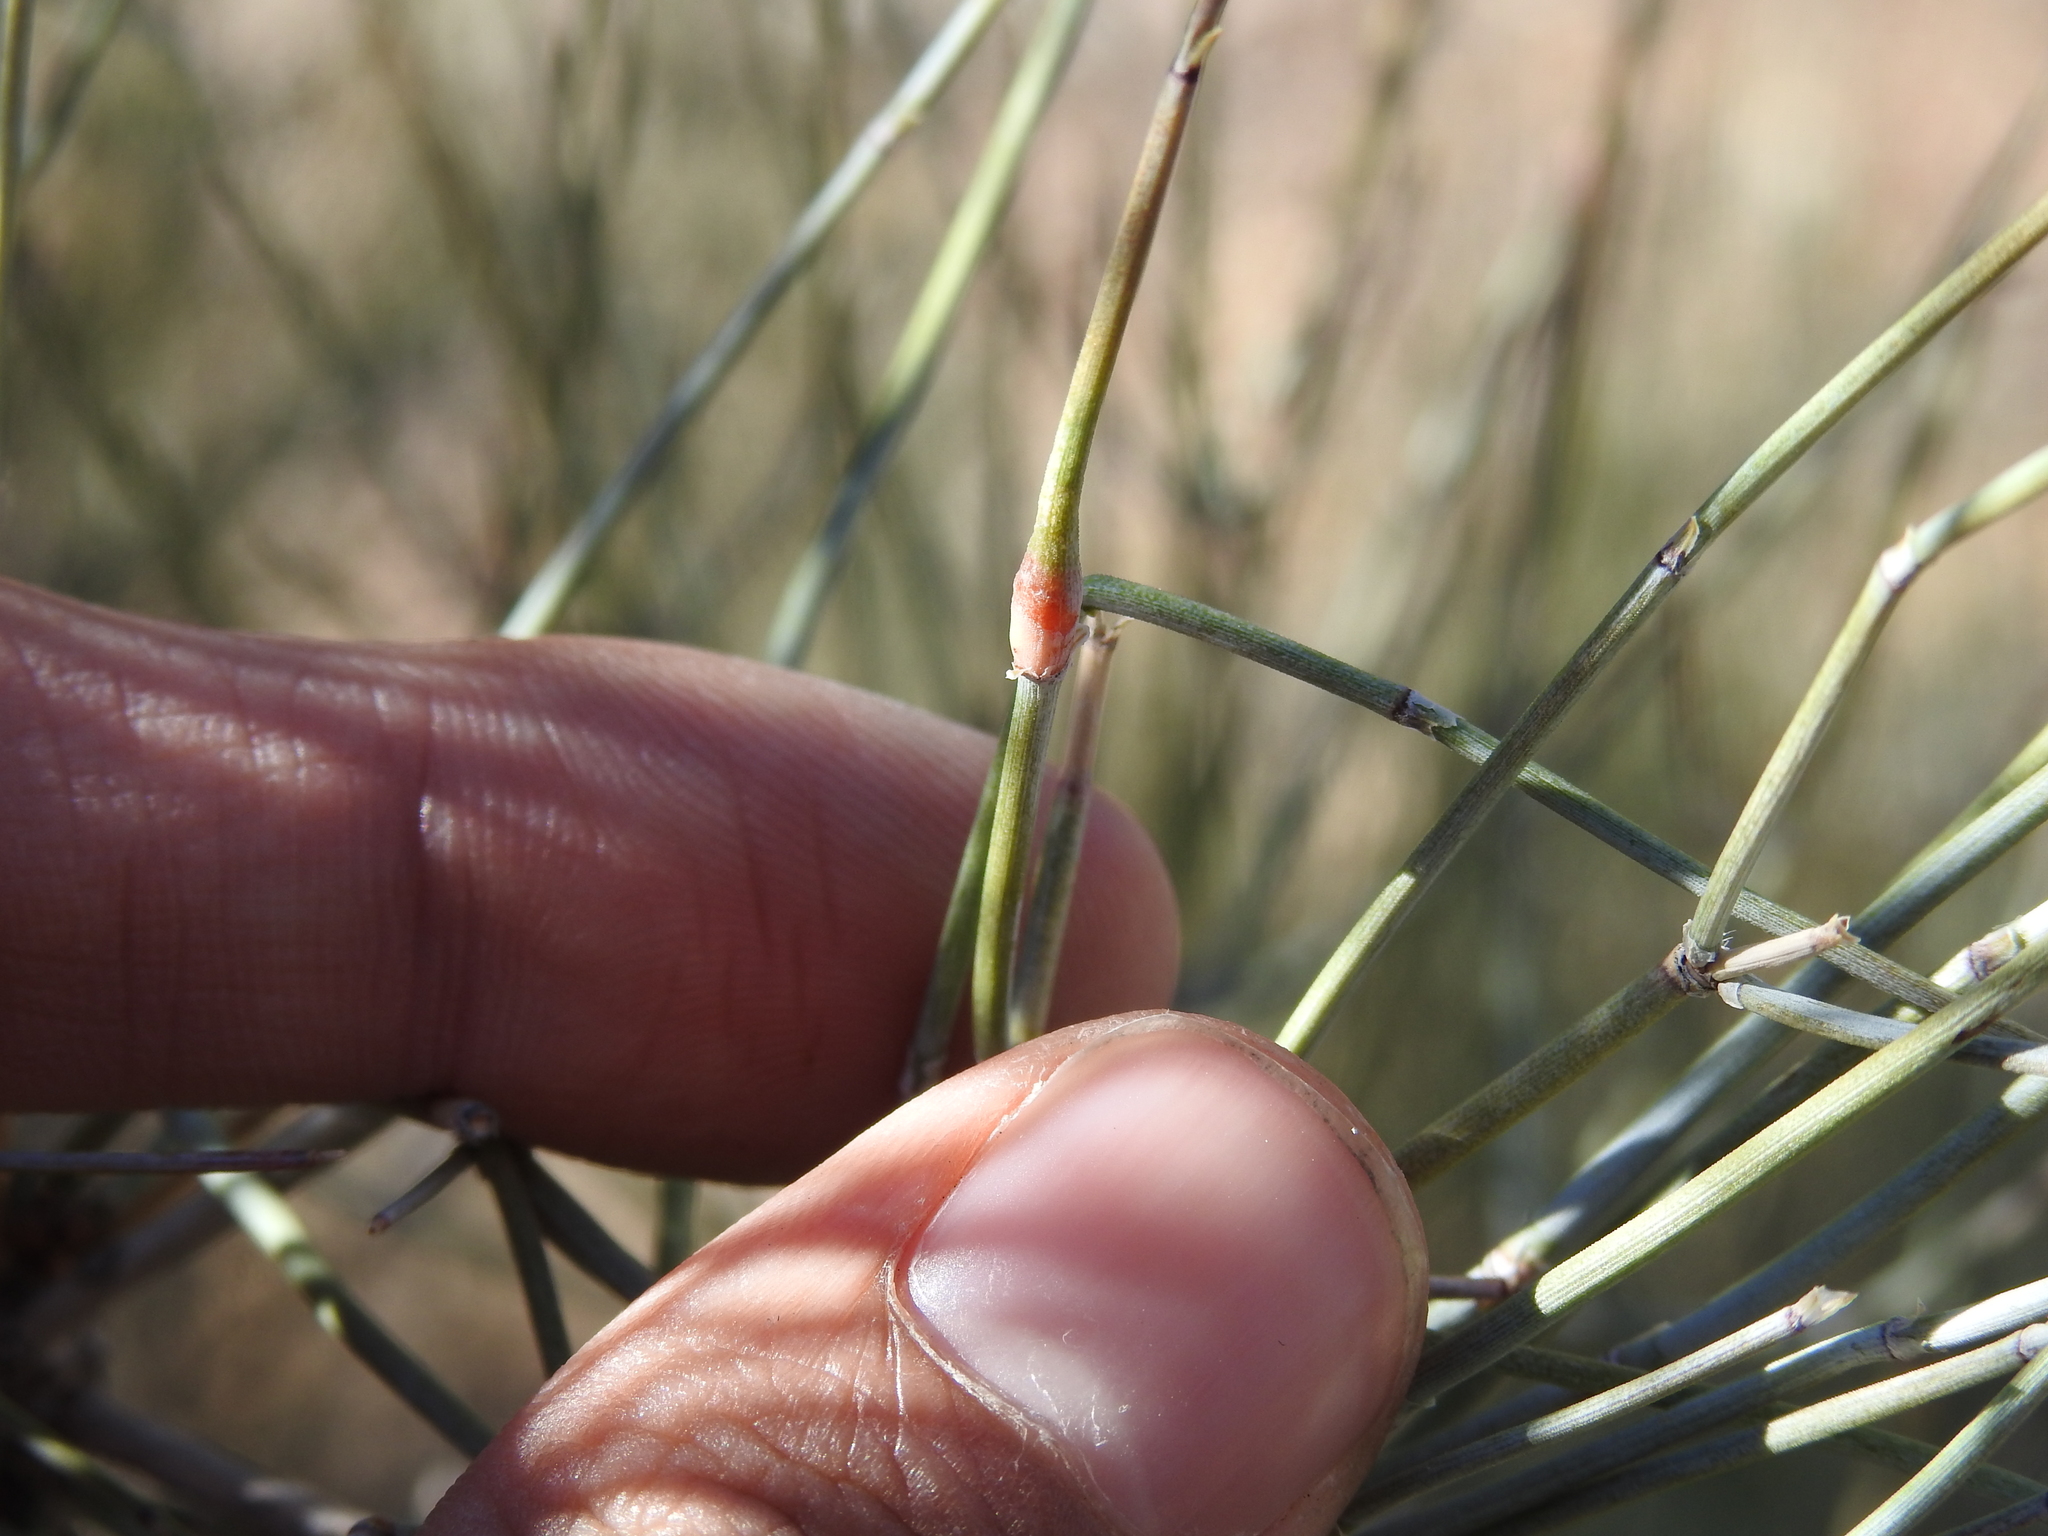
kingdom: Animalia
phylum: Arthropoda
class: Insecta
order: Diptera
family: Cecidomyiidae
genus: Lasioptera
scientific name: Lasioptera ephedrae
